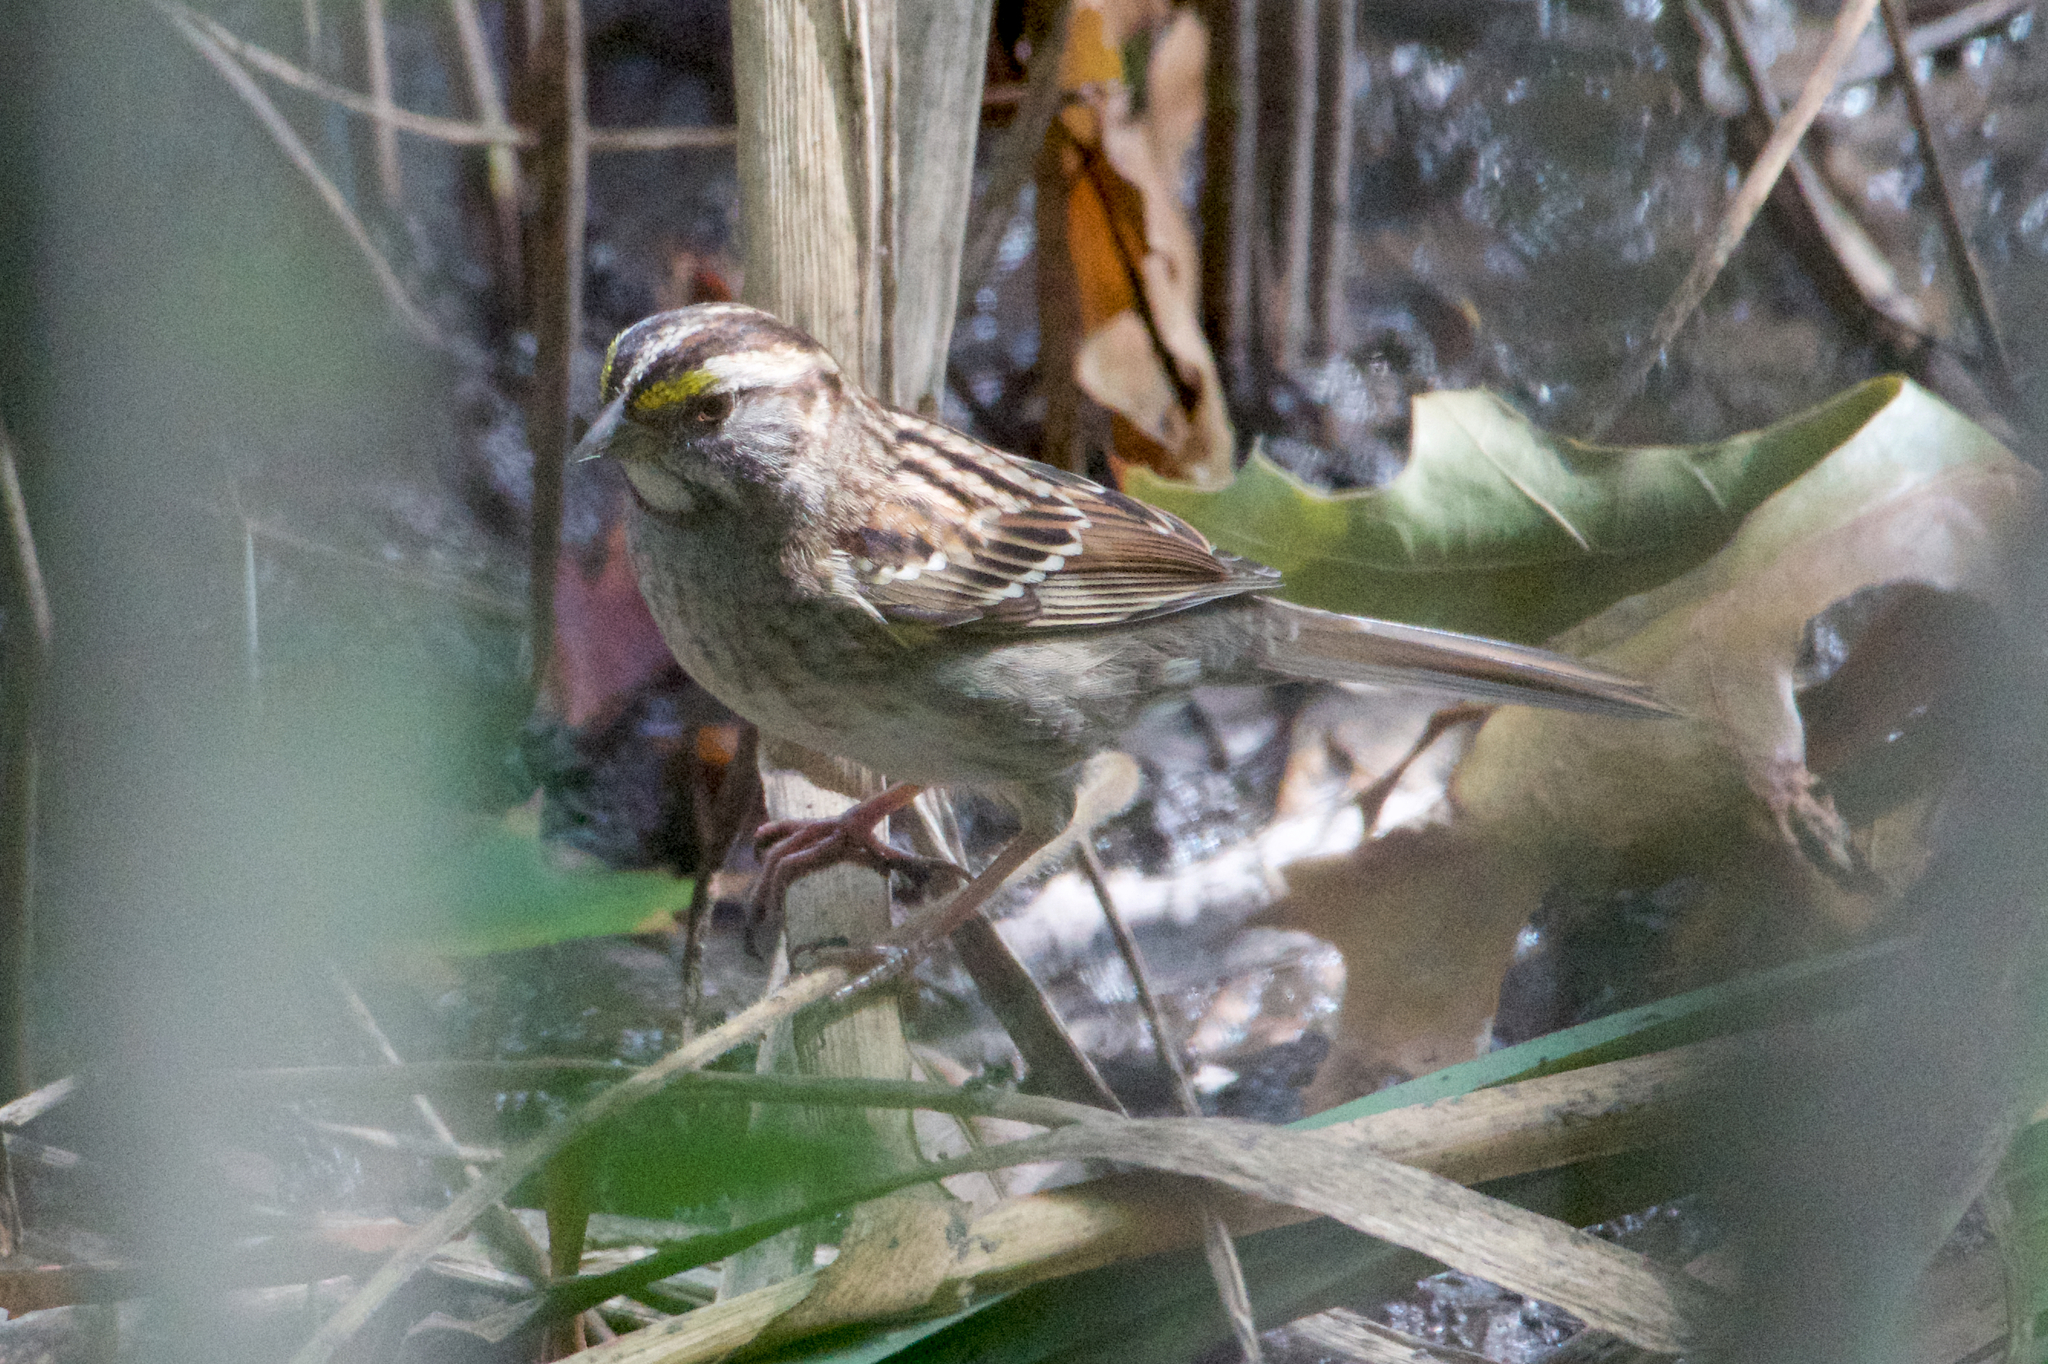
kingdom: Animalia
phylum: Chordata
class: Aves
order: Passeriformes
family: Passerellidae
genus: Zonotrichia
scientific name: Zonotrichia albicollis
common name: White-throated sparrow
